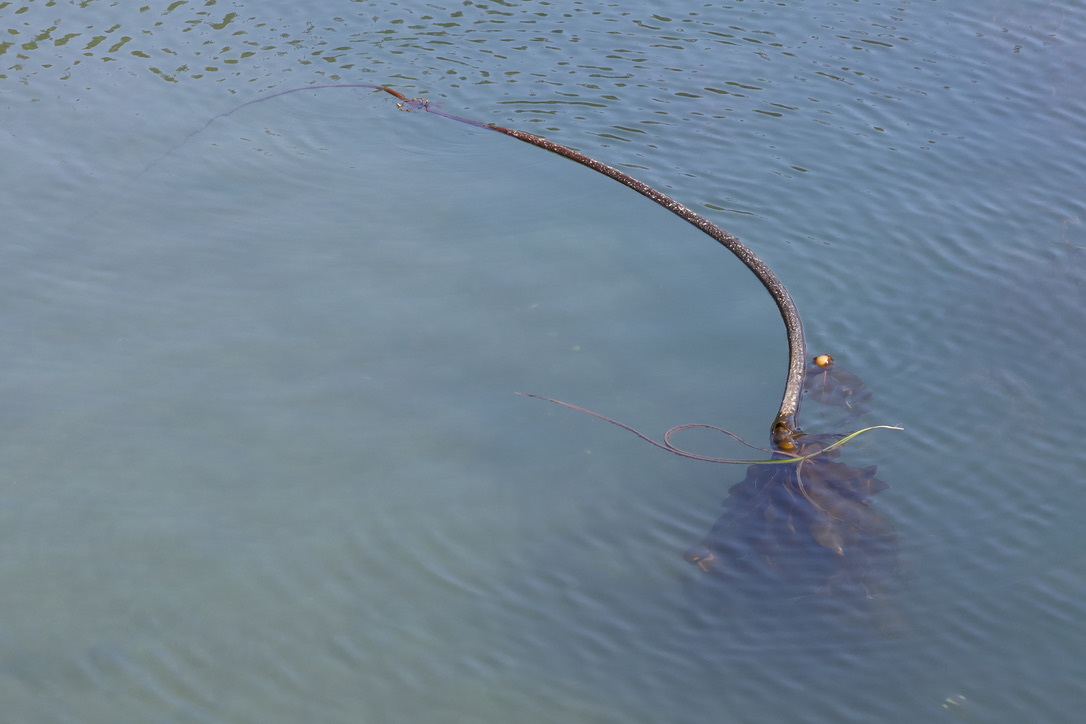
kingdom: Chromista
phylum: Ochrophyta
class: Phaeophyceae
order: Laminariales
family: Laminariaceae
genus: Nereocystis
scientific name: Nereocystis luetkeana
